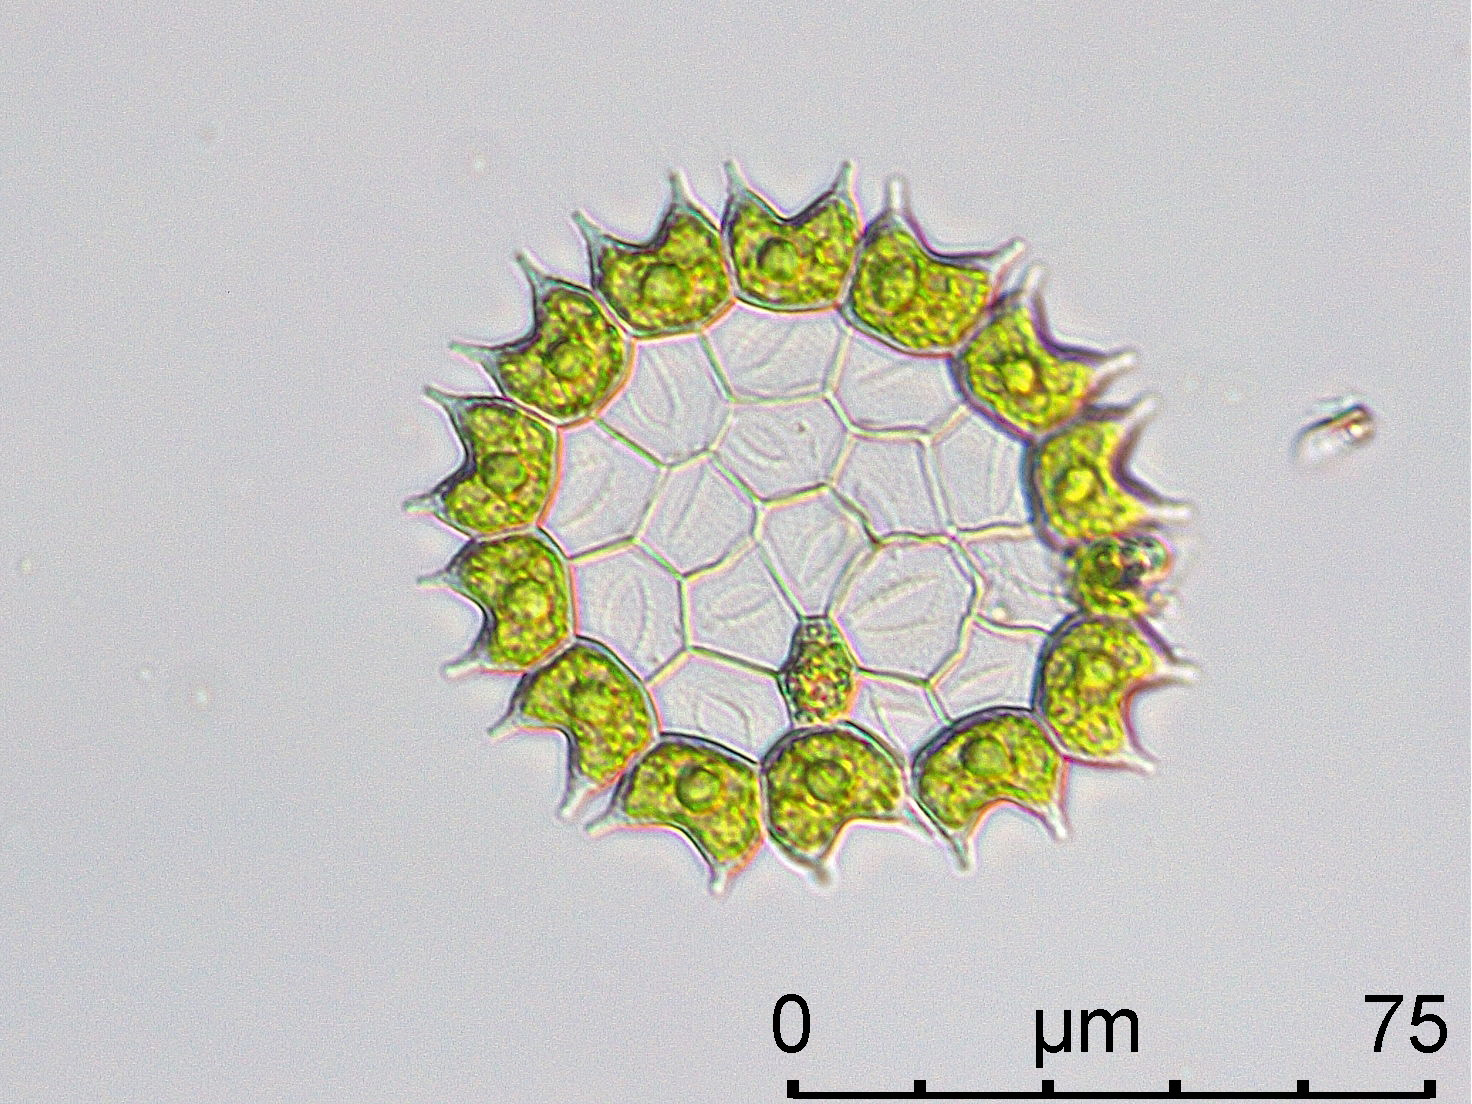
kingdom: Plantae
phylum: Chlorophyta
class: Chlorophyceae
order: Sphaeropleales
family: Hydrodictyaceae
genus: Pseudopediastrum
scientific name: Pseudopediastrum boryanum
